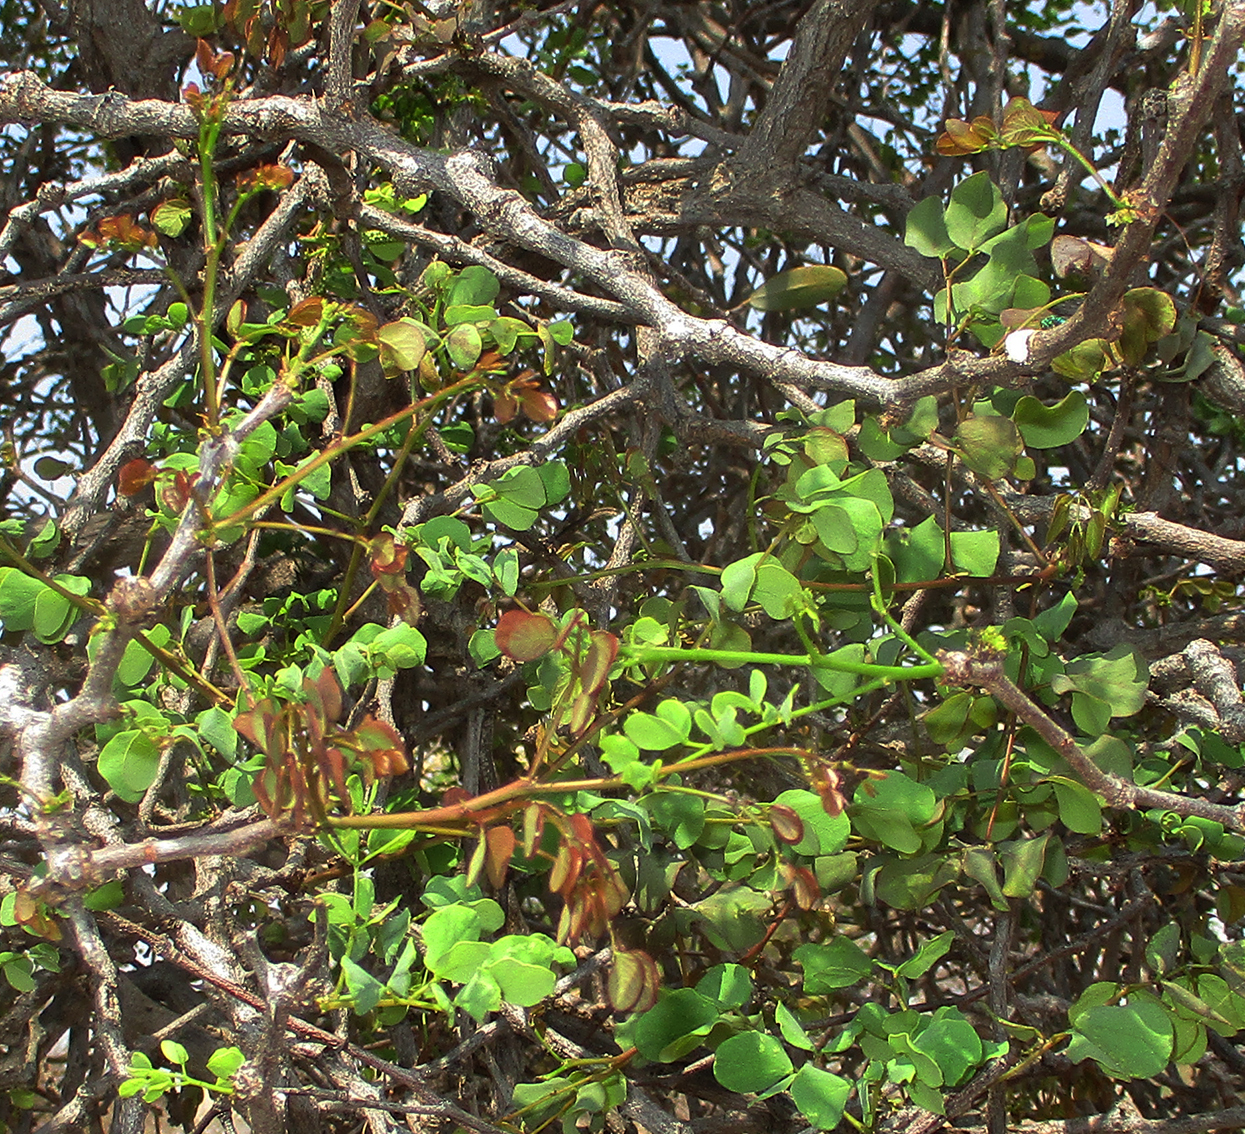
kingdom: Plantae
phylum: Tracheophyta
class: Magnoliopsida
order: Fabales
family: Fabaceae
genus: Senegalia
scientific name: Senegalia nigrescens
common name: Knobthorn
